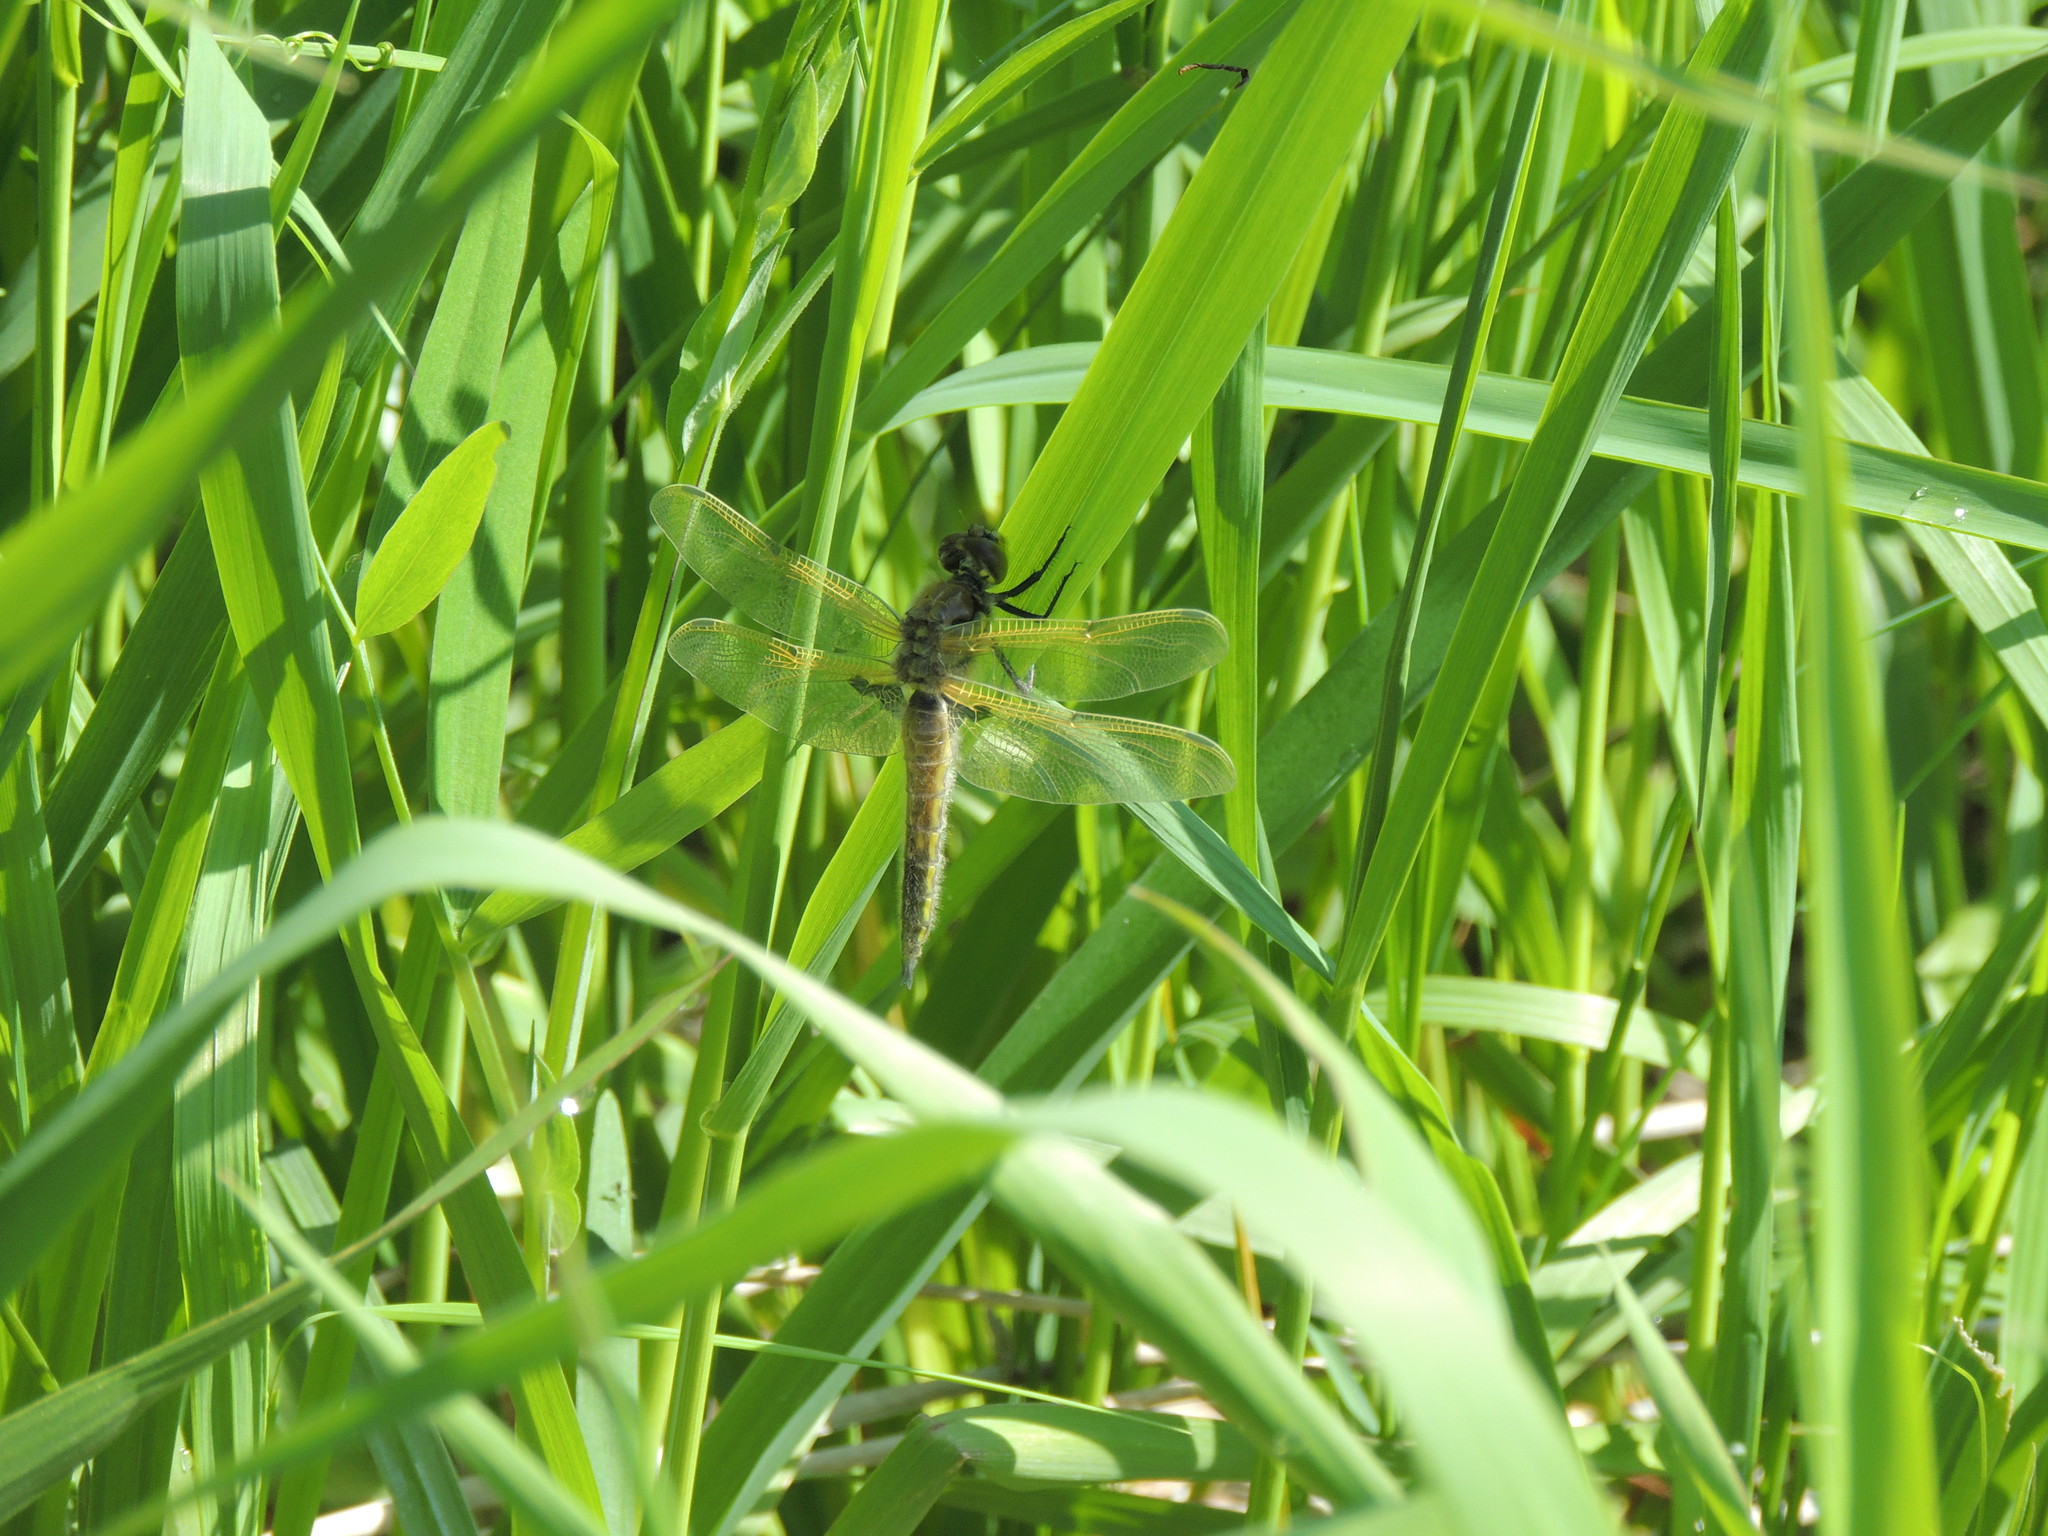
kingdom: Animalia
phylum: Arthropoda
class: Insecta
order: Odonata
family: Libellulidae
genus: Libellula
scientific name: Libellula quadrimaculata
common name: Four-spotted chaser
